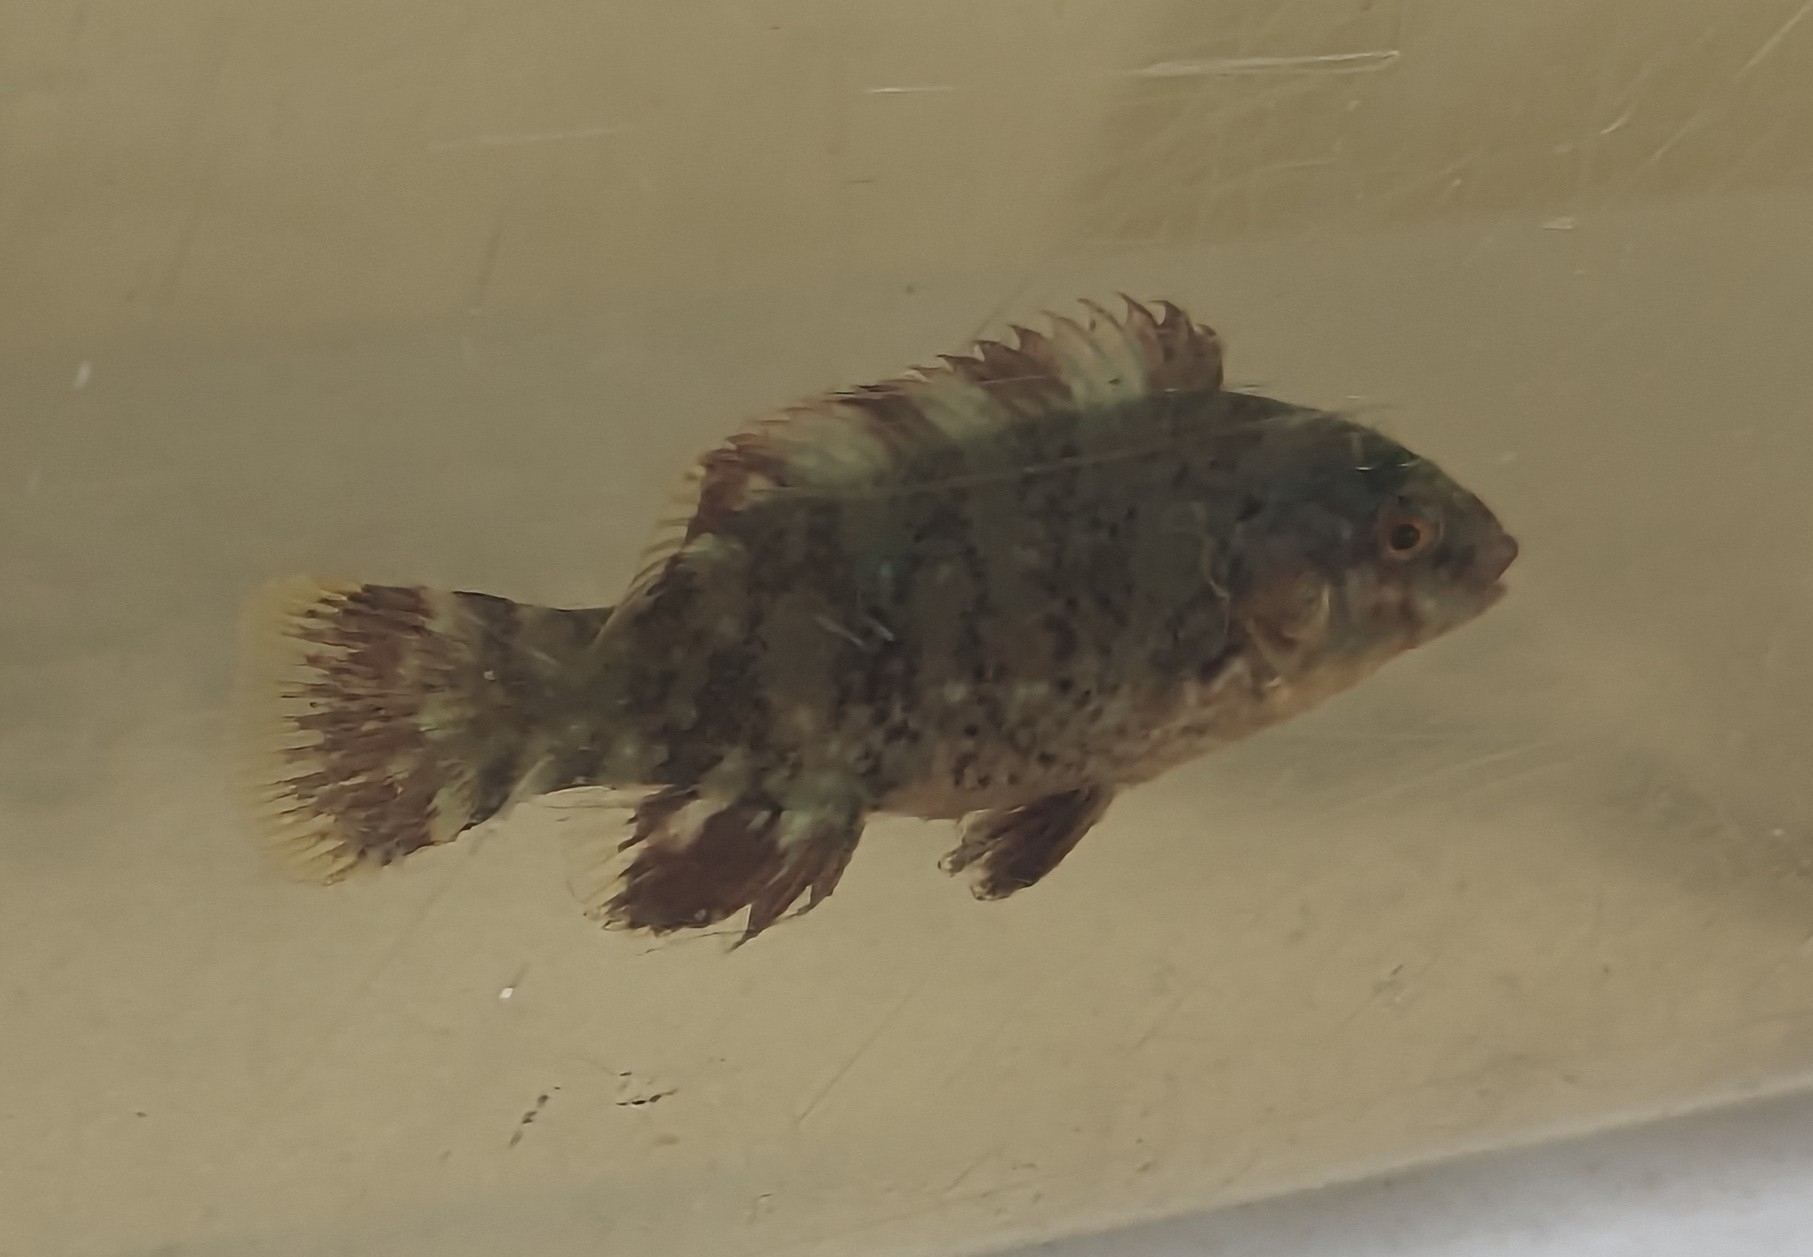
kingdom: Animalia
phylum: Chordata
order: Perciformes
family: Labridae
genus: Tautoga
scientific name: Tautoga onitis
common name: Tautog
